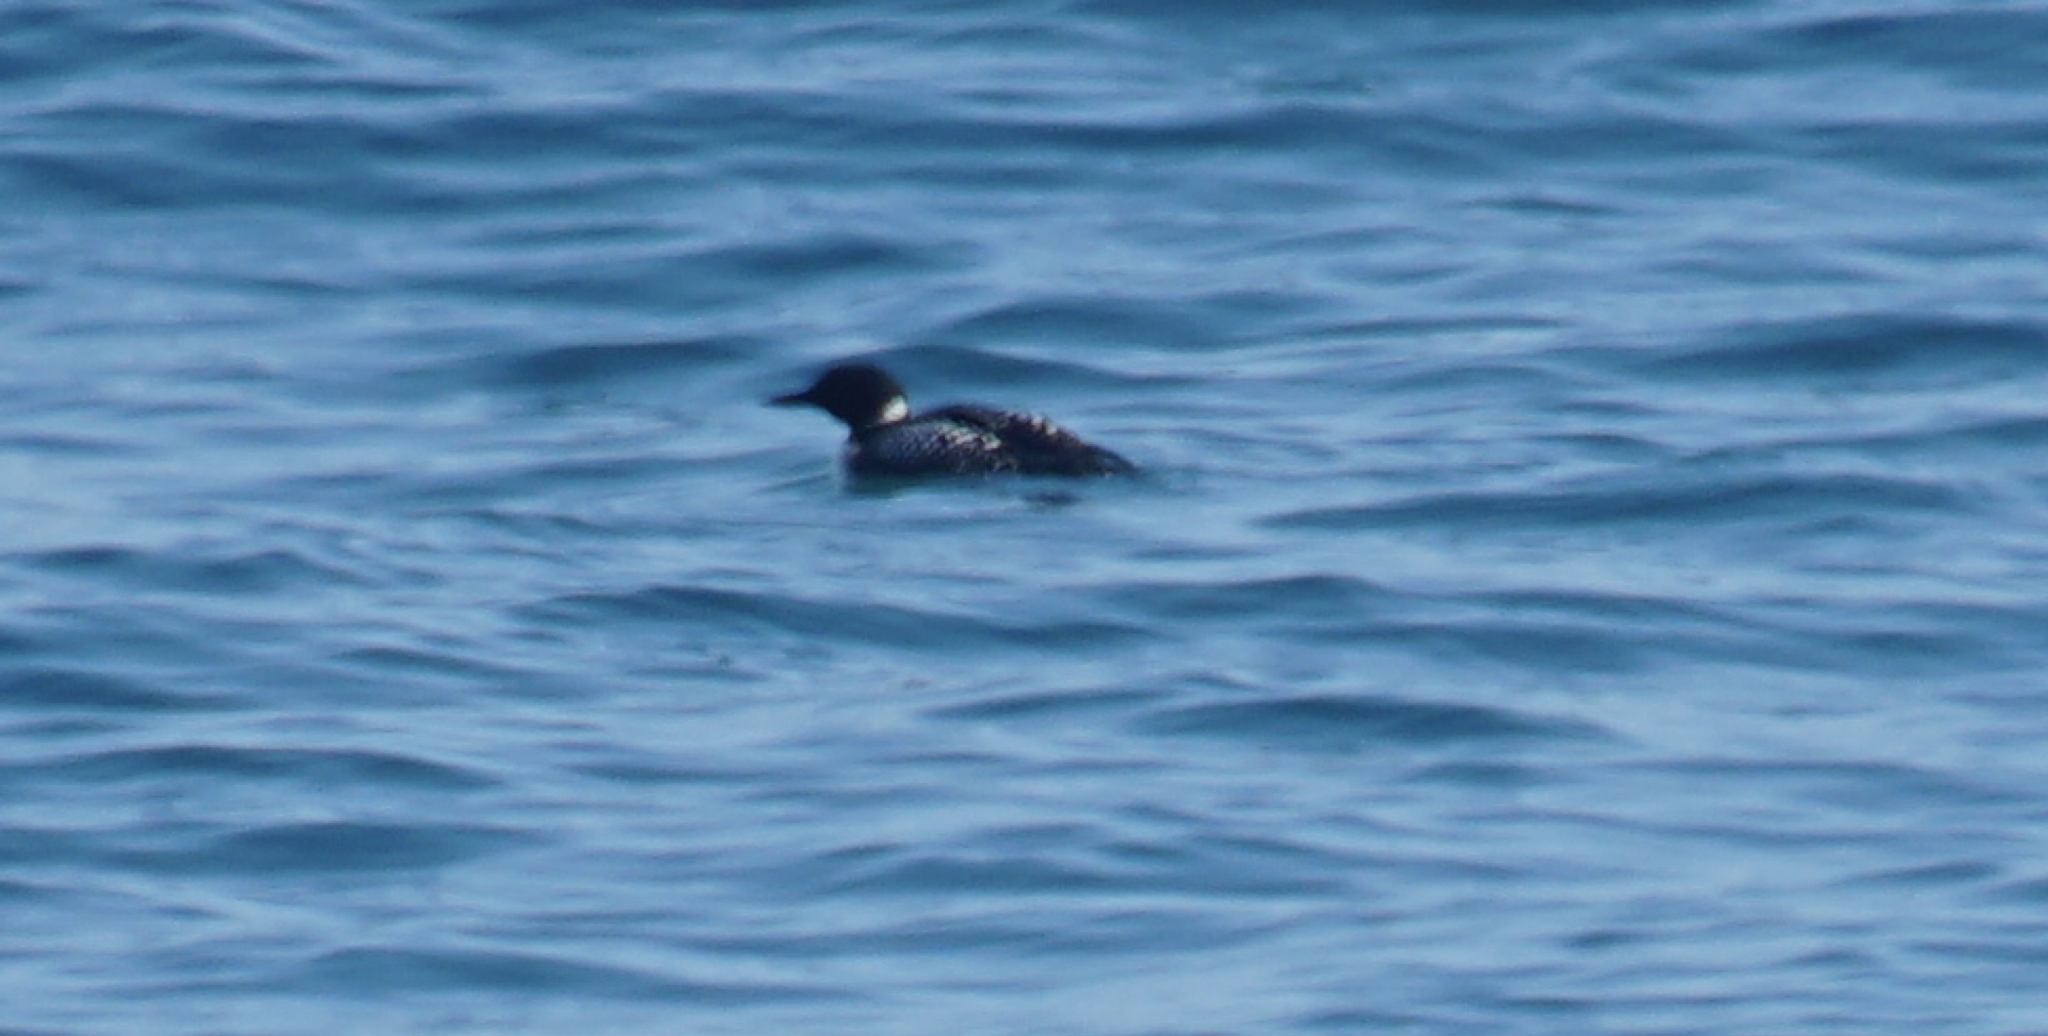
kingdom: Animalia
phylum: Chordata
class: Aves
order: Gaviiformes
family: Gaviidae
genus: Gavia
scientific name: Gavia immer
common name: Common loon
